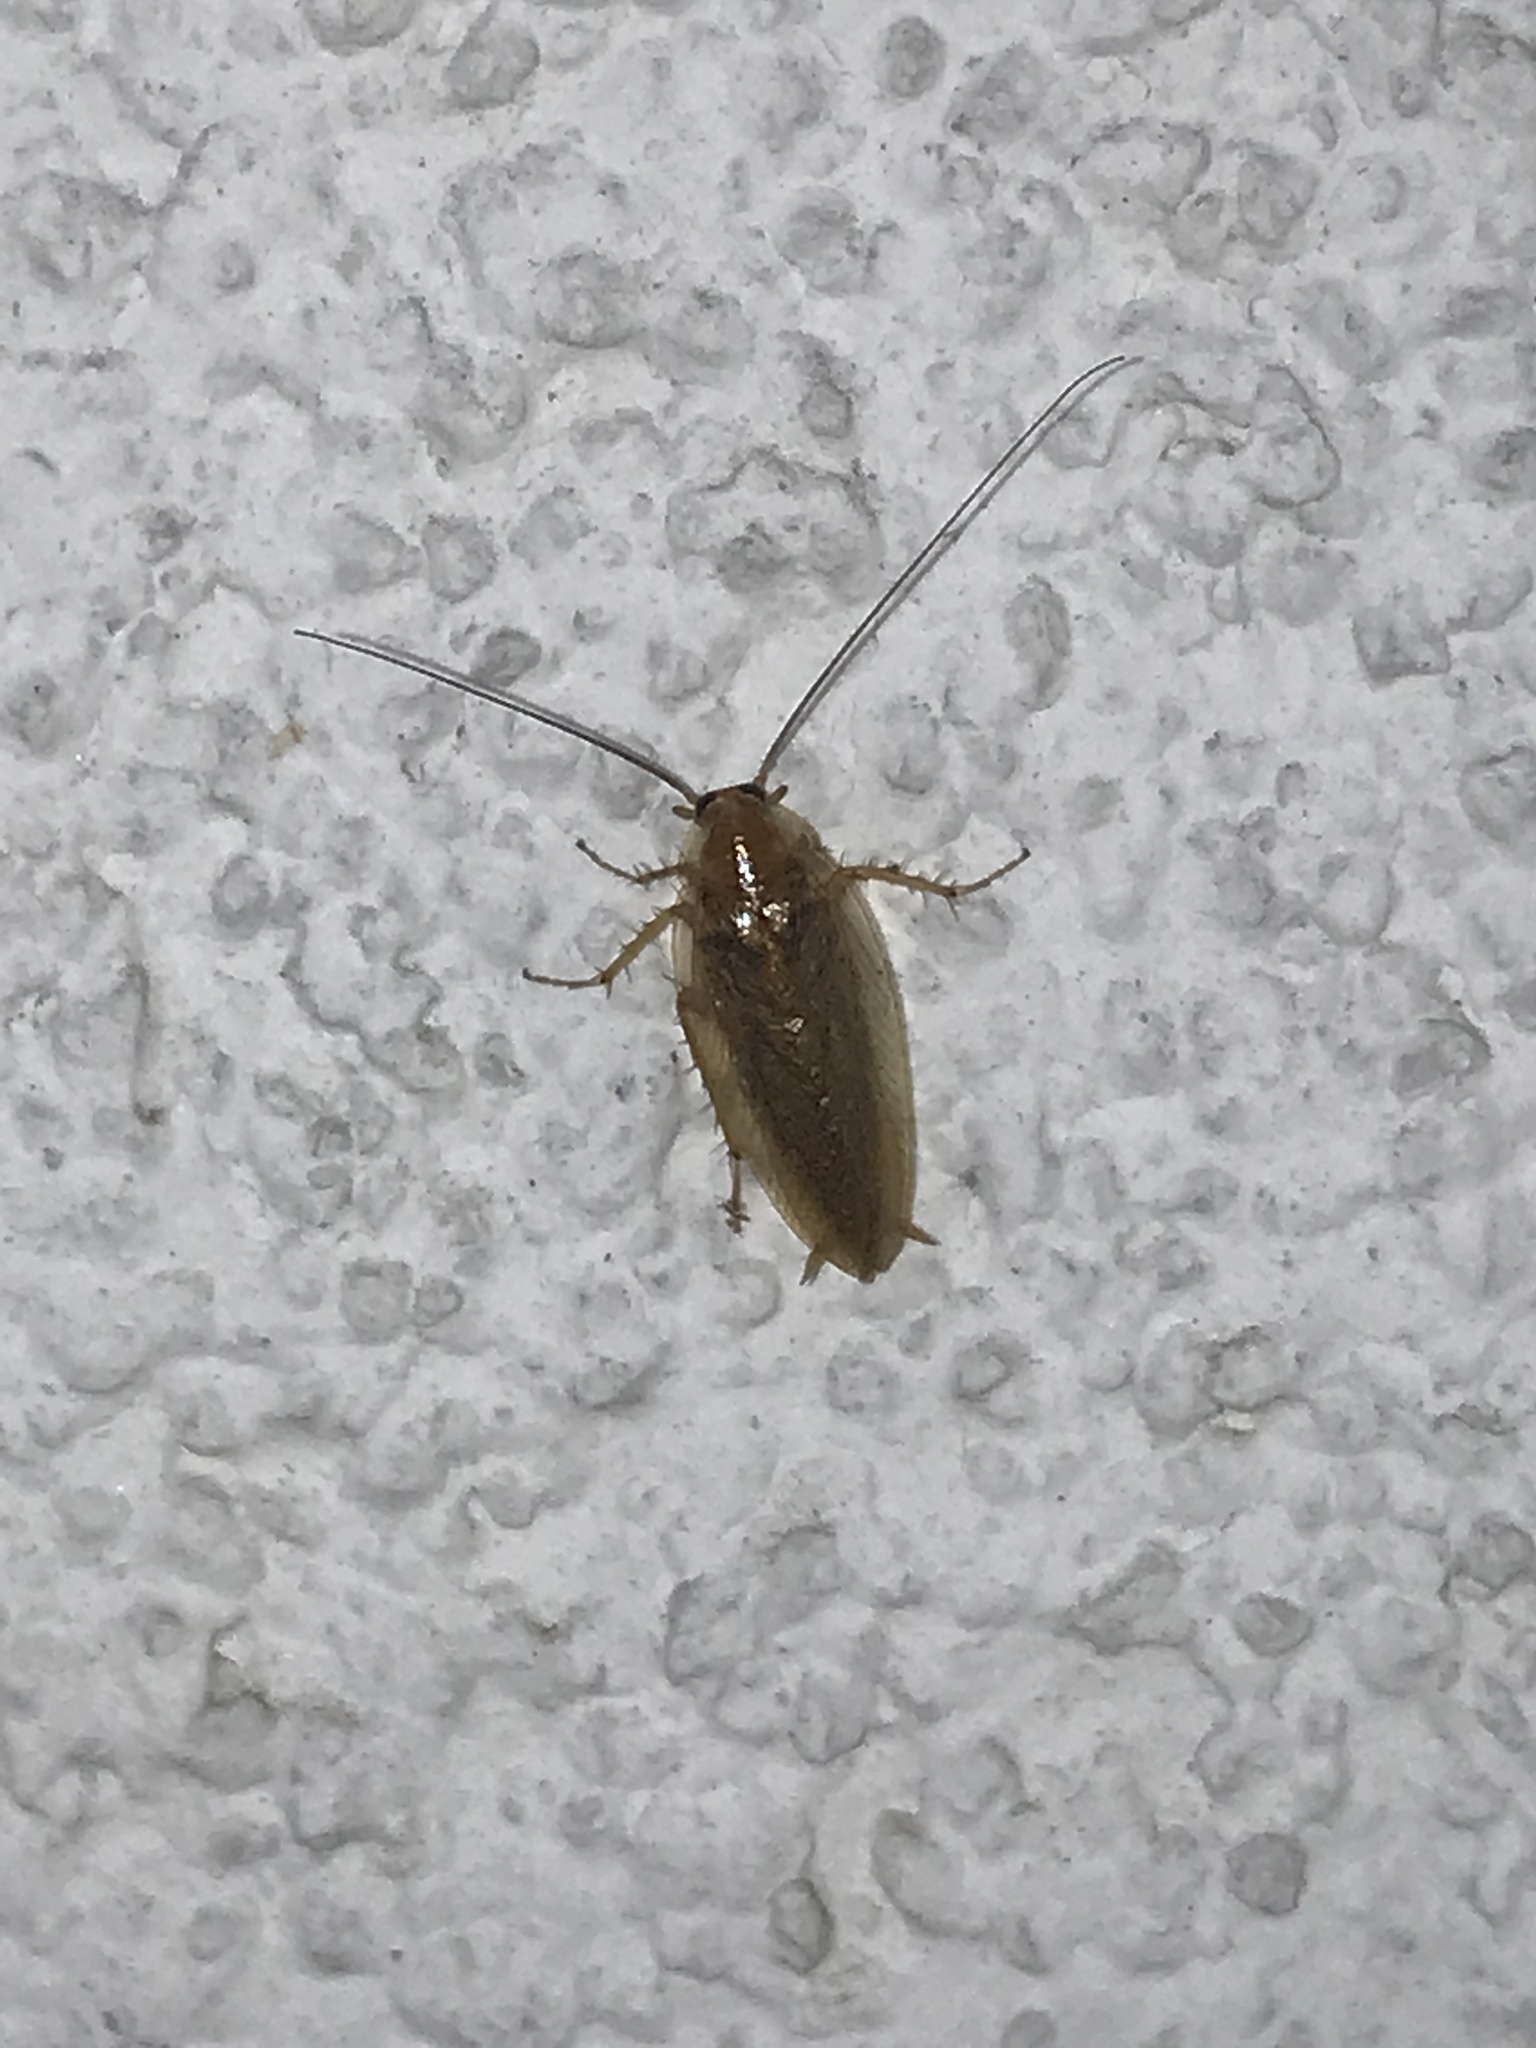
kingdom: Animalia
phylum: Arthropoda
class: Insecta
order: Blattodea
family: Ectobiidae
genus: Ectobius
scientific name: Ectobius vittiventris
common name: Garden cockroach
